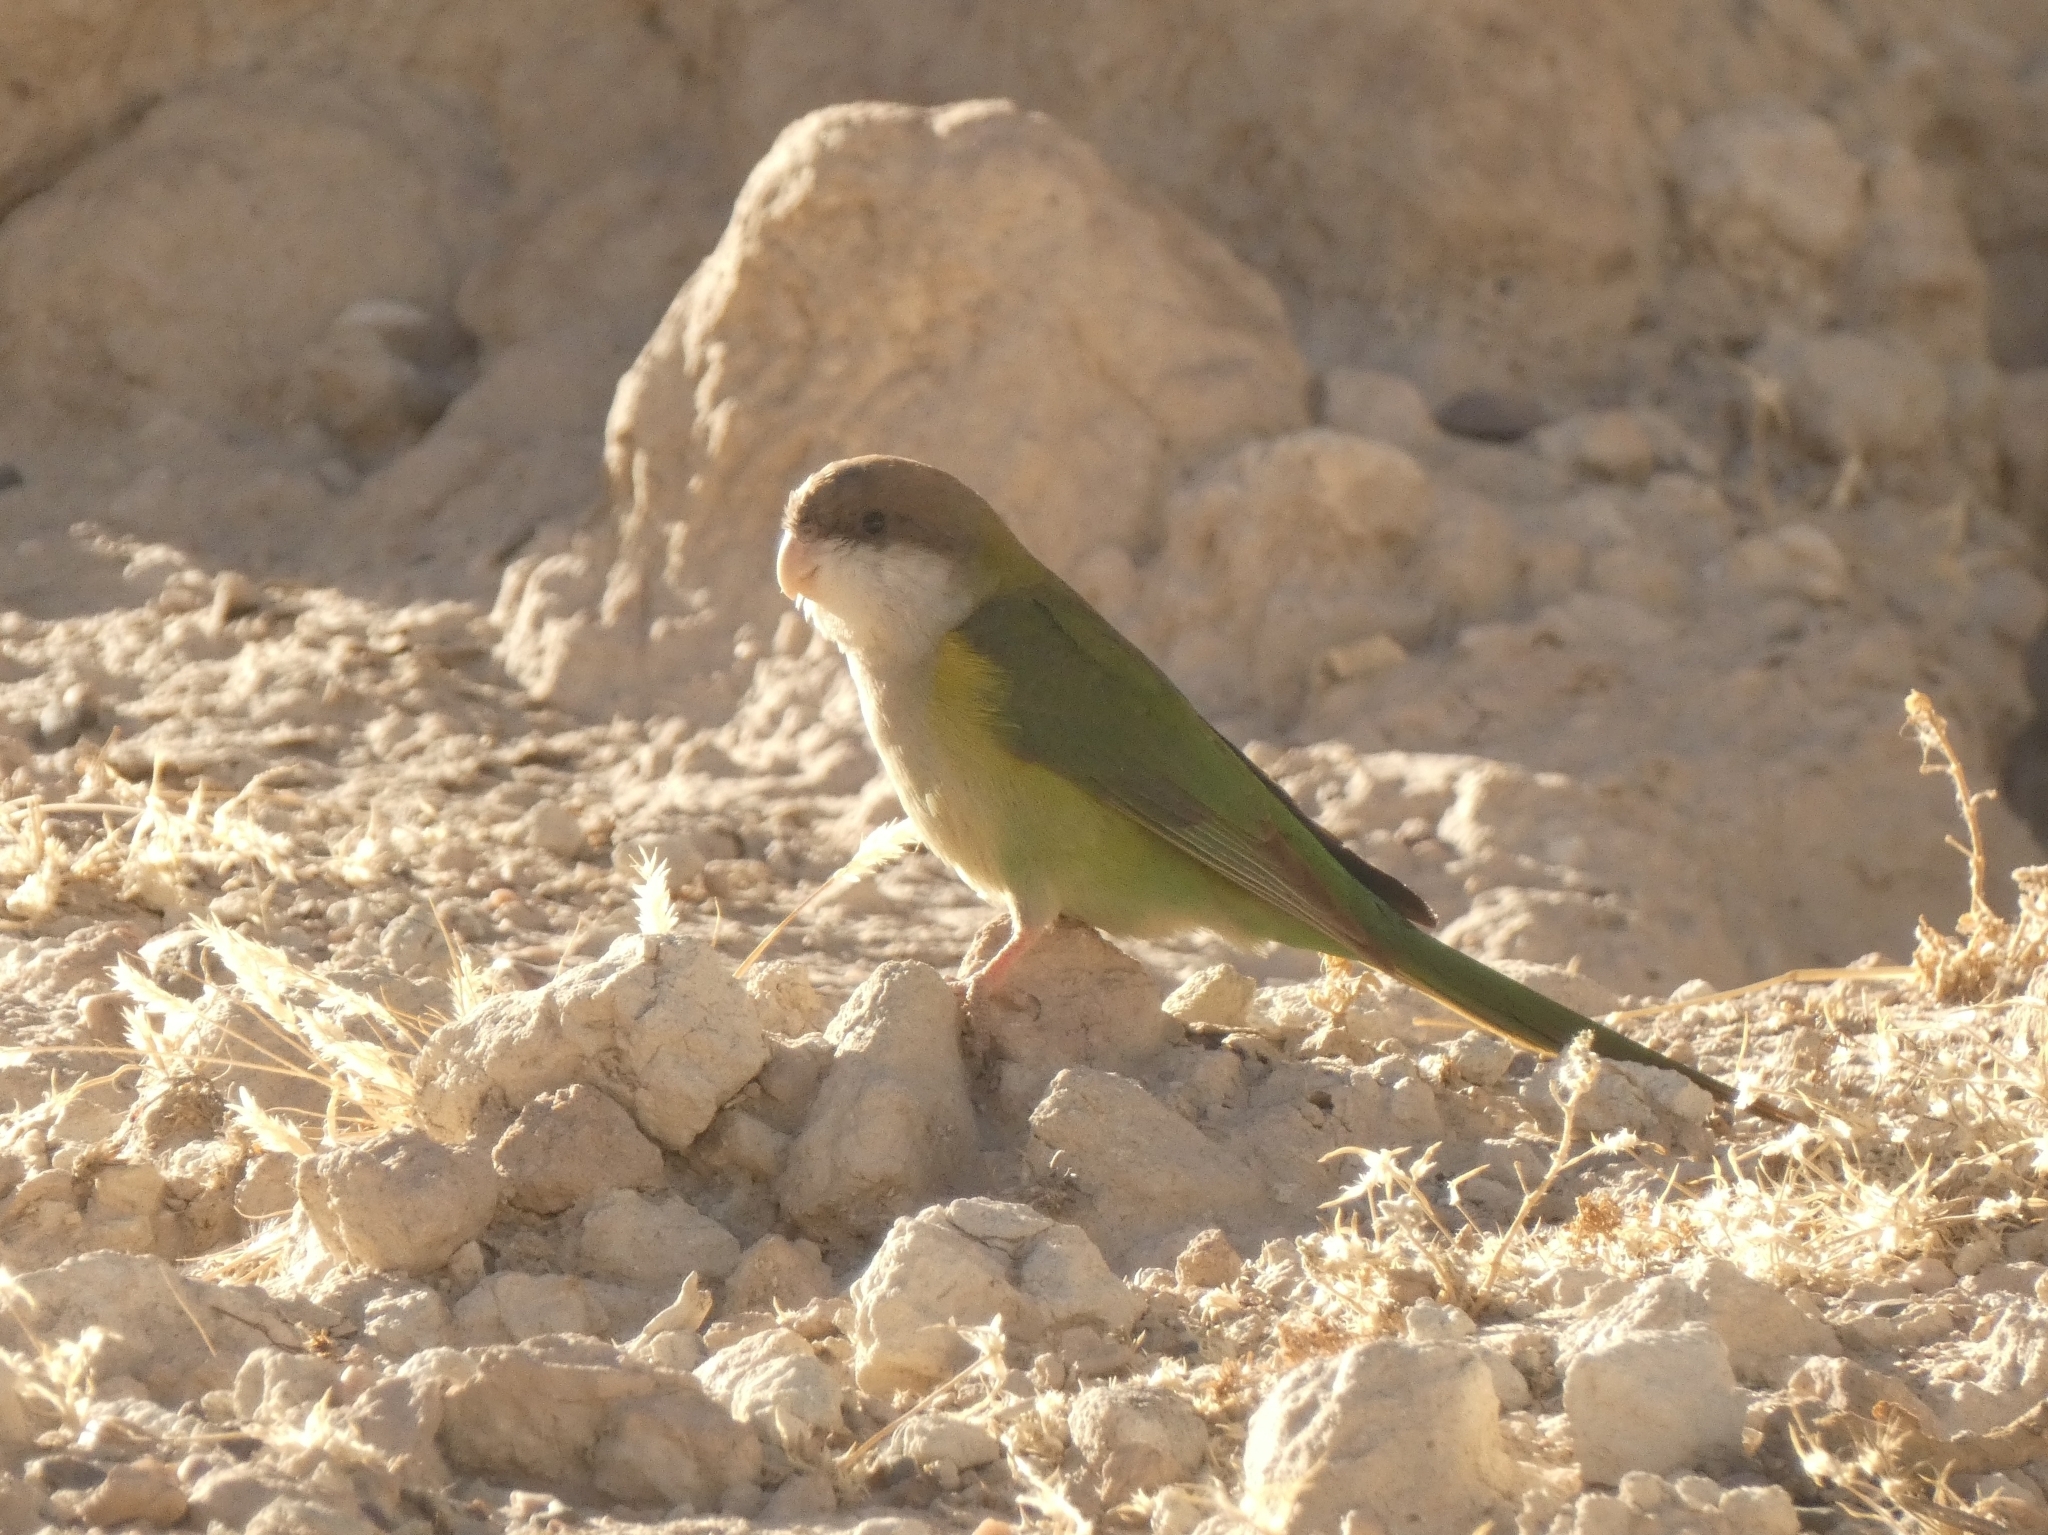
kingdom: Animalia
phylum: Chordata
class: Aves
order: Psittaciformes
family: Psittacidae
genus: Psilopsiagon
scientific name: Psilopsiagon aymara
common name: Grey-hooded parakeet
